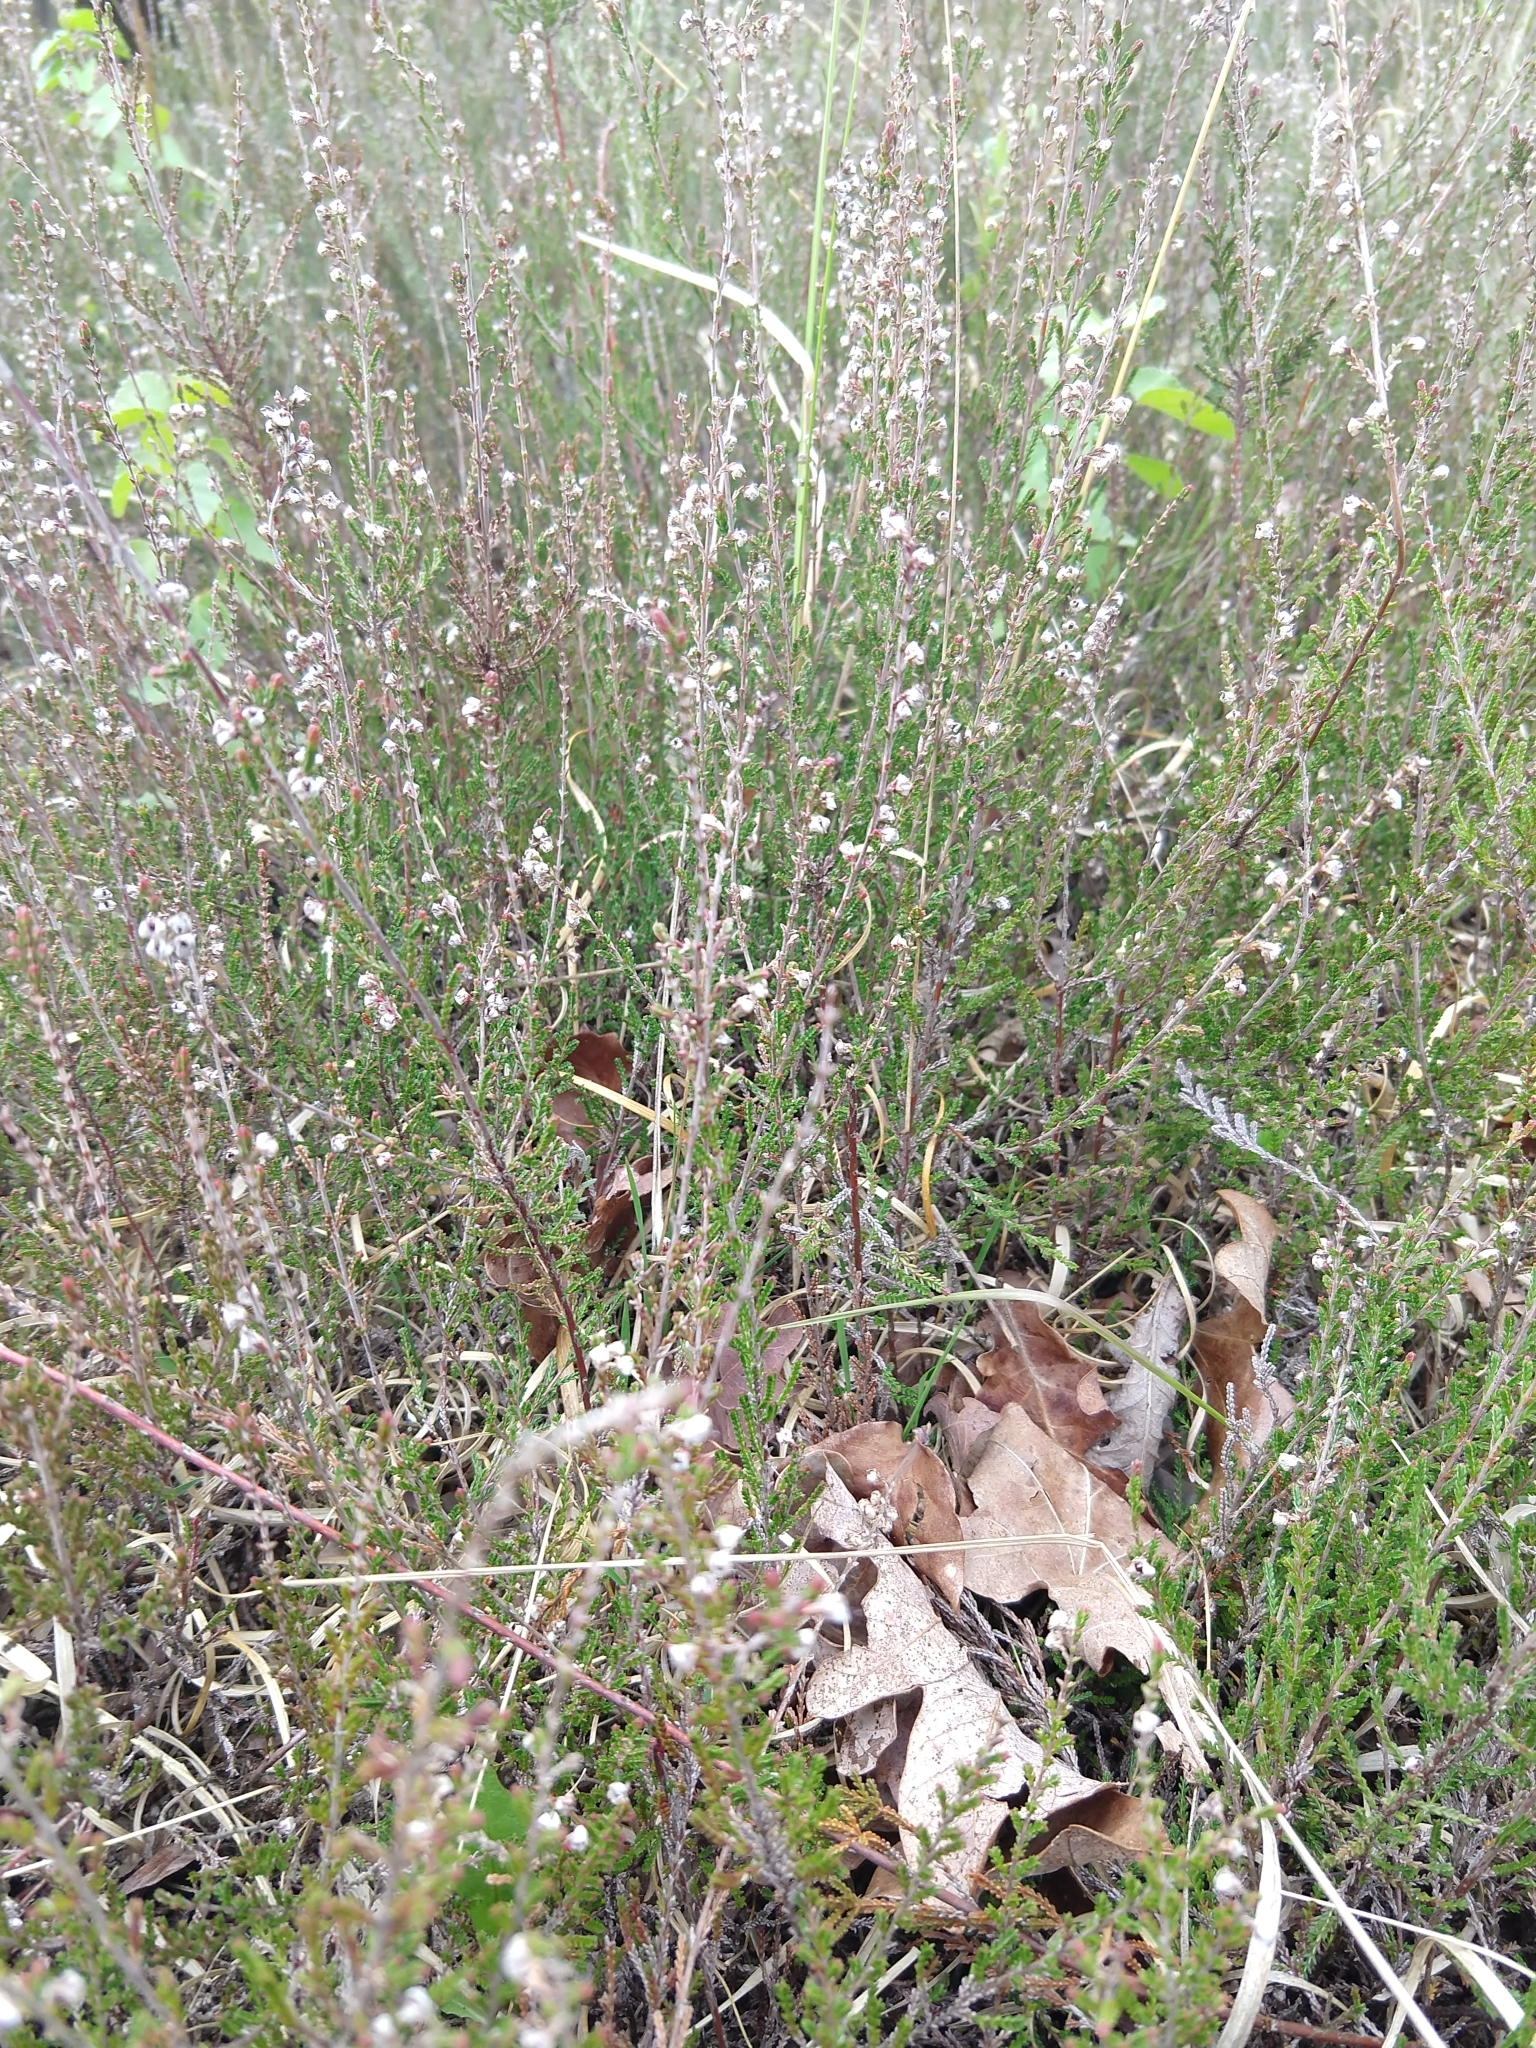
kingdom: Plantae
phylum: Tracheophyta
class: Magnoliopsida
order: Ericales
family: Ericaceae
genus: Calluna
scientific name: Calluna vulgaris
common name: Heather
